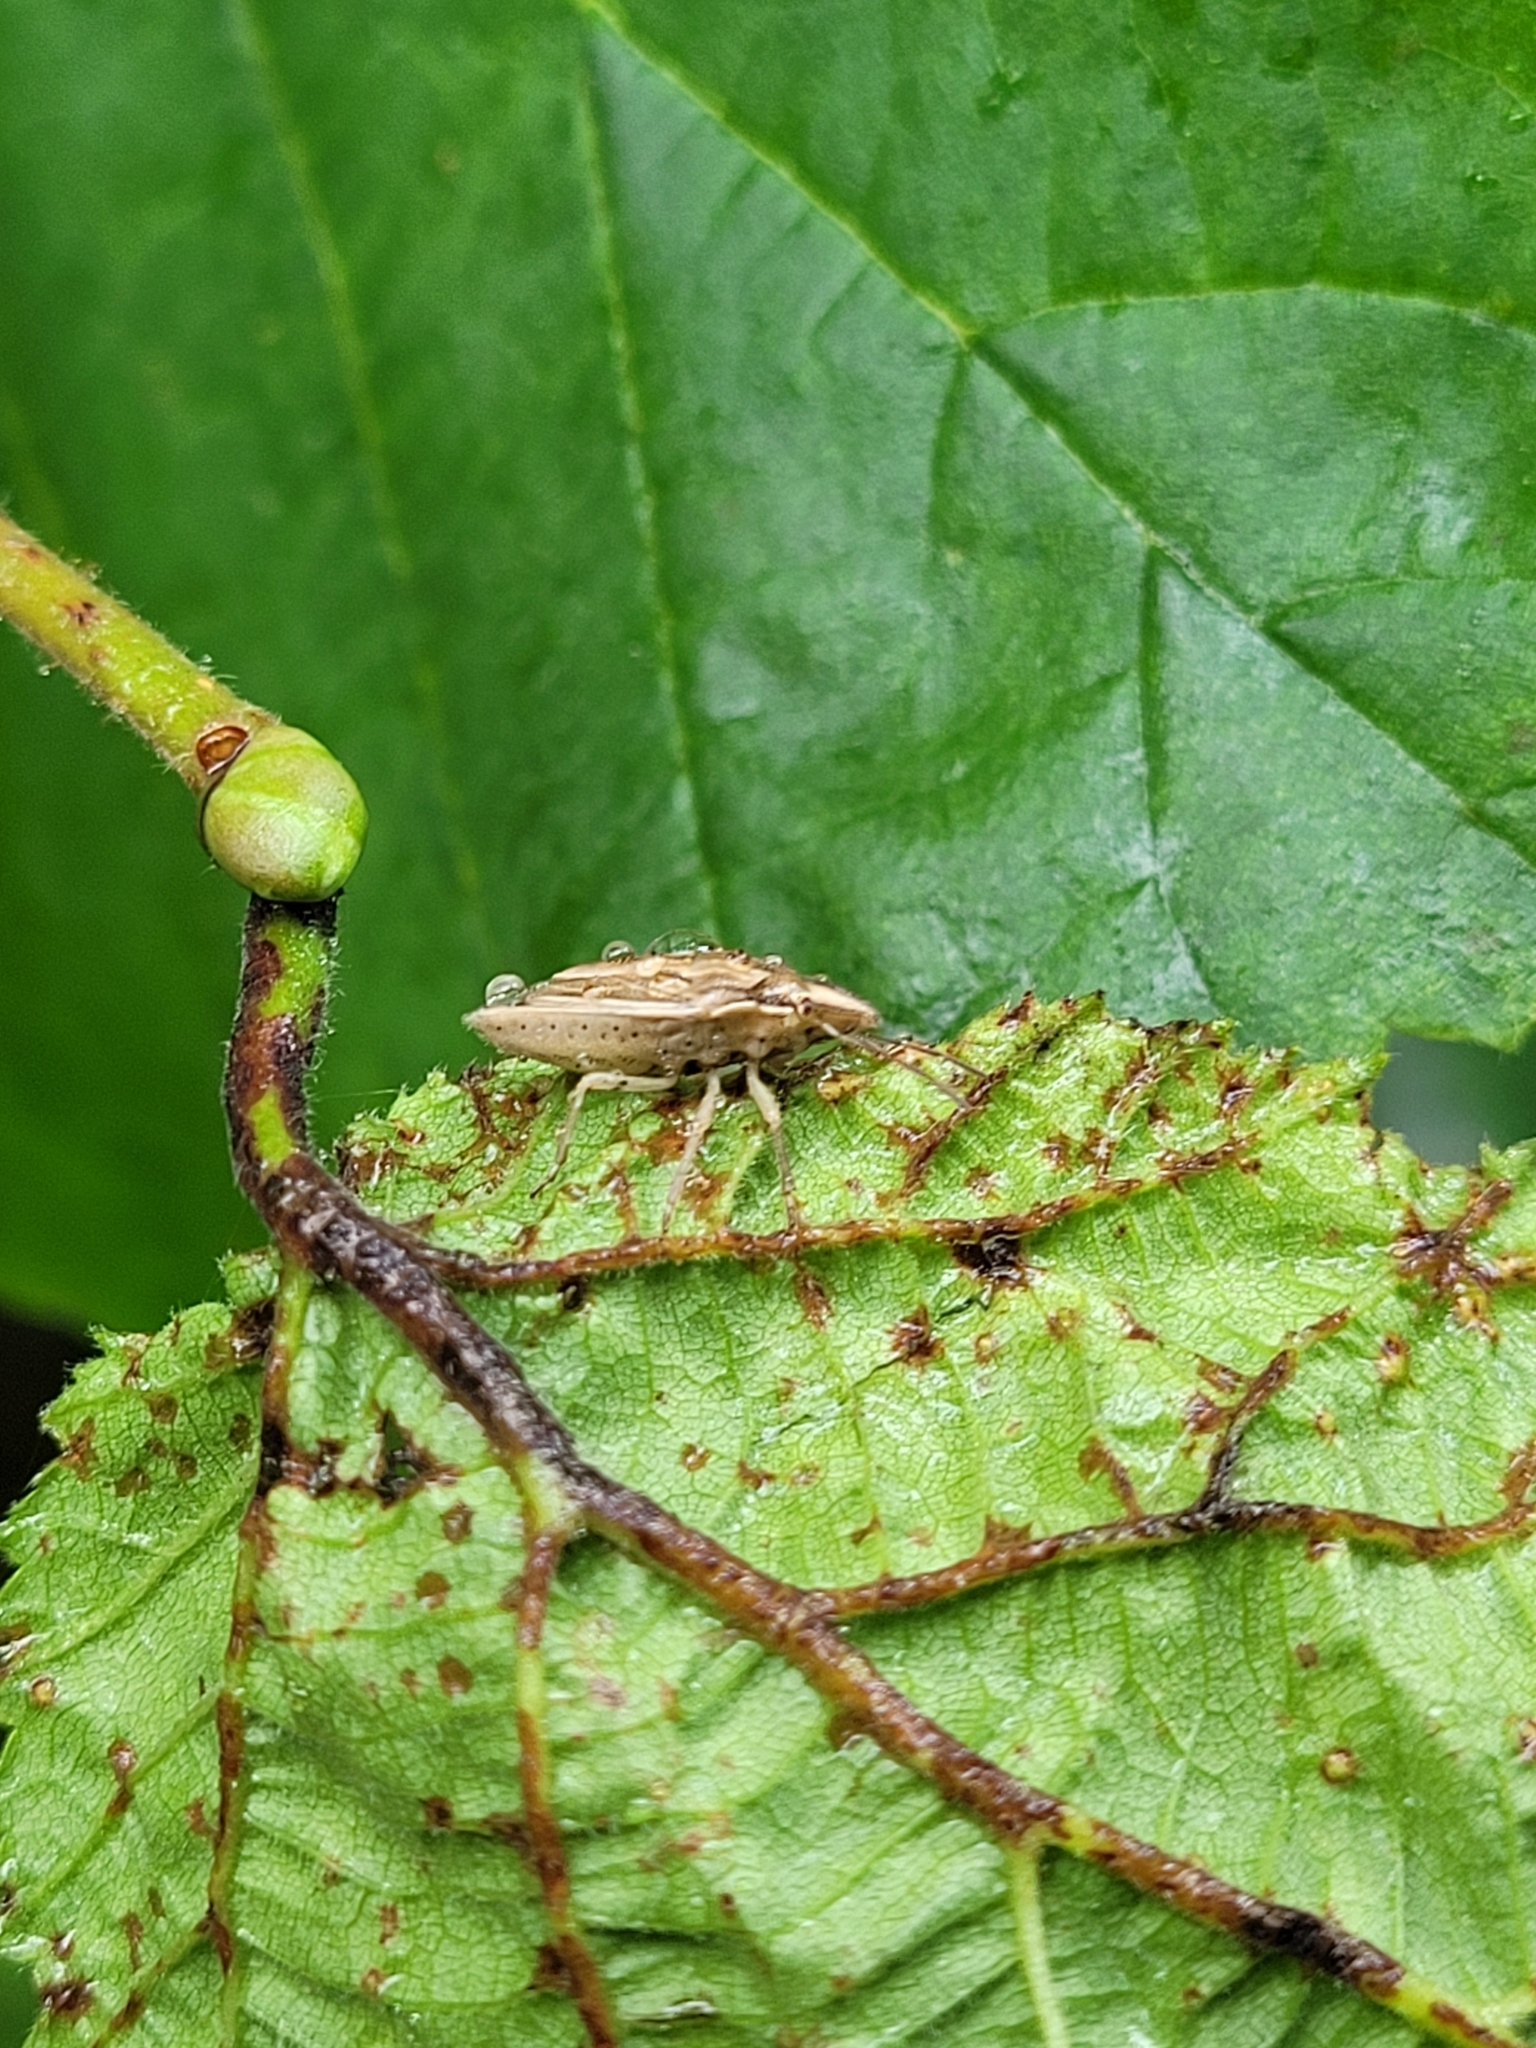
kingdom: Animalia
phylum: Arthropoda
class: Insecta
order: Hemiptera
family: Pentatomidae
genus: Aelia
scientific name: Aelia acuminata
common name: Bishop's mitre
